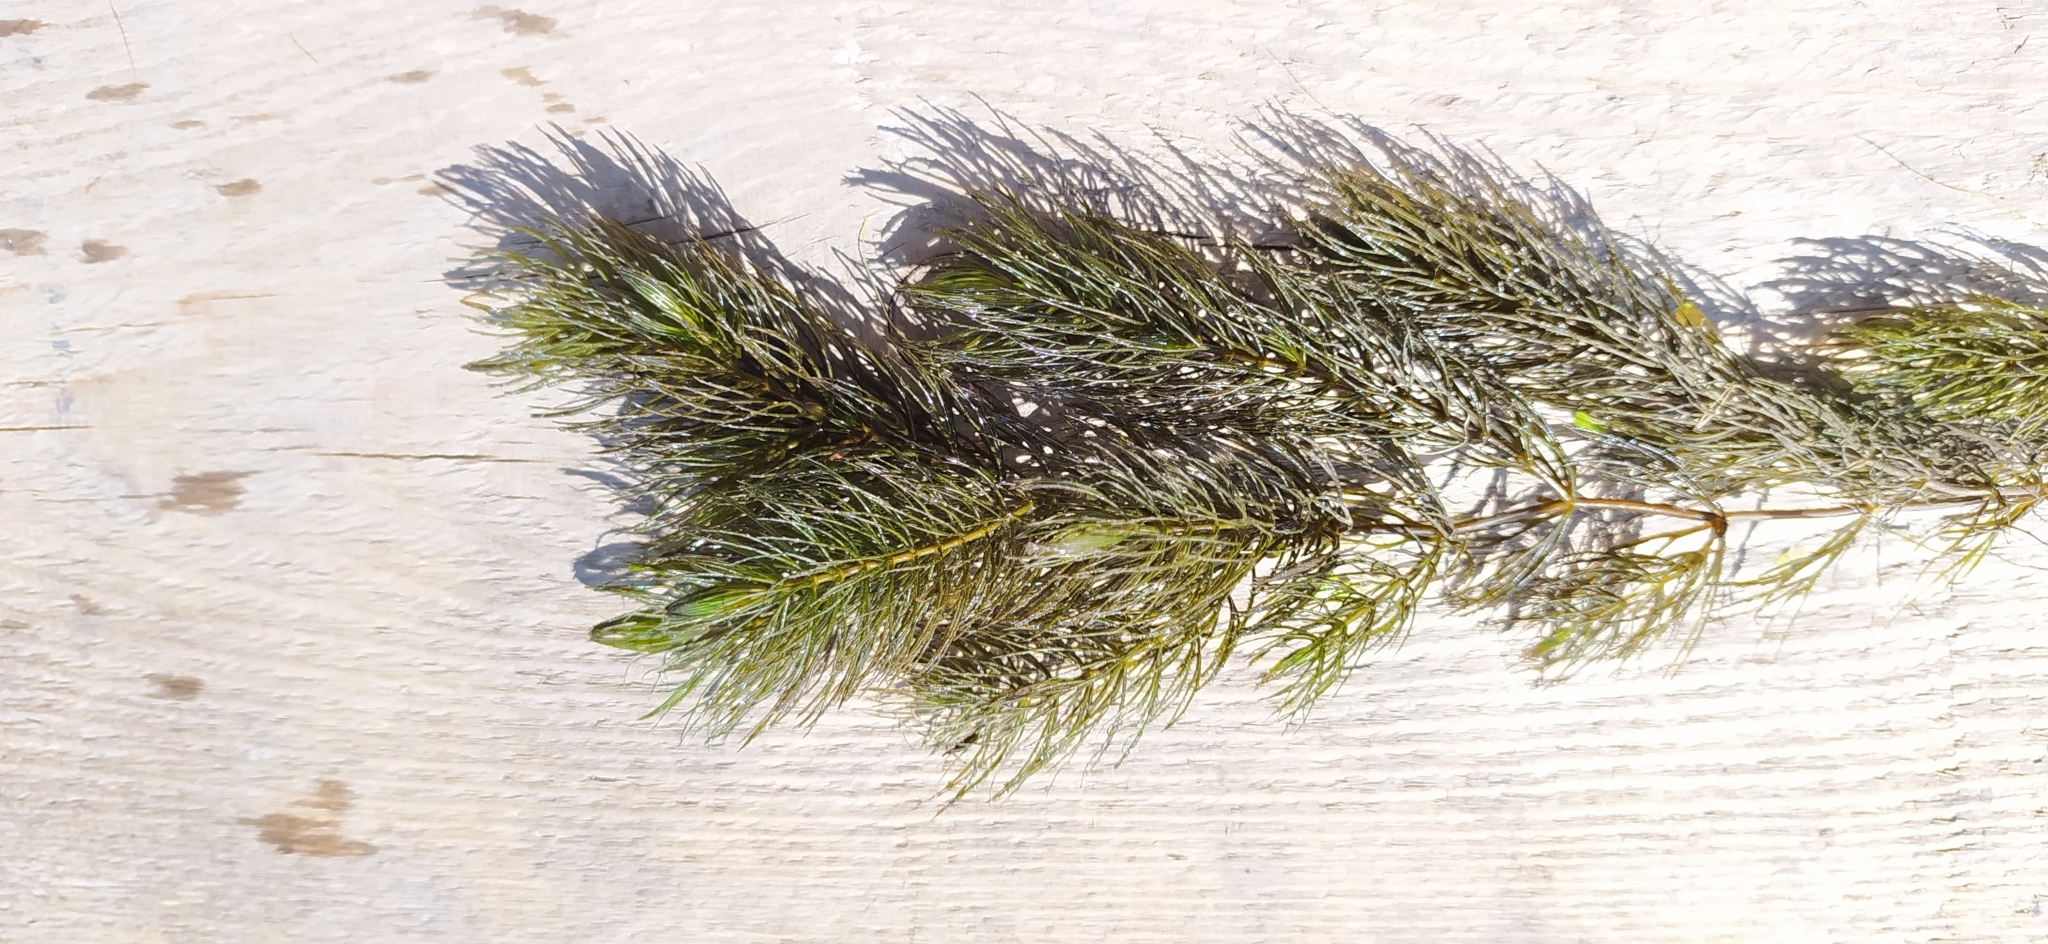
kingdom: Plantae
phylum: Tracheophyta
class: Magnoliopsida
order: Ceratophyllales
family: Ceratophyllaceae
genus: Ceratophyllum
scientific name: Ceratophyllum demersum
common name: Rigid hornwort
